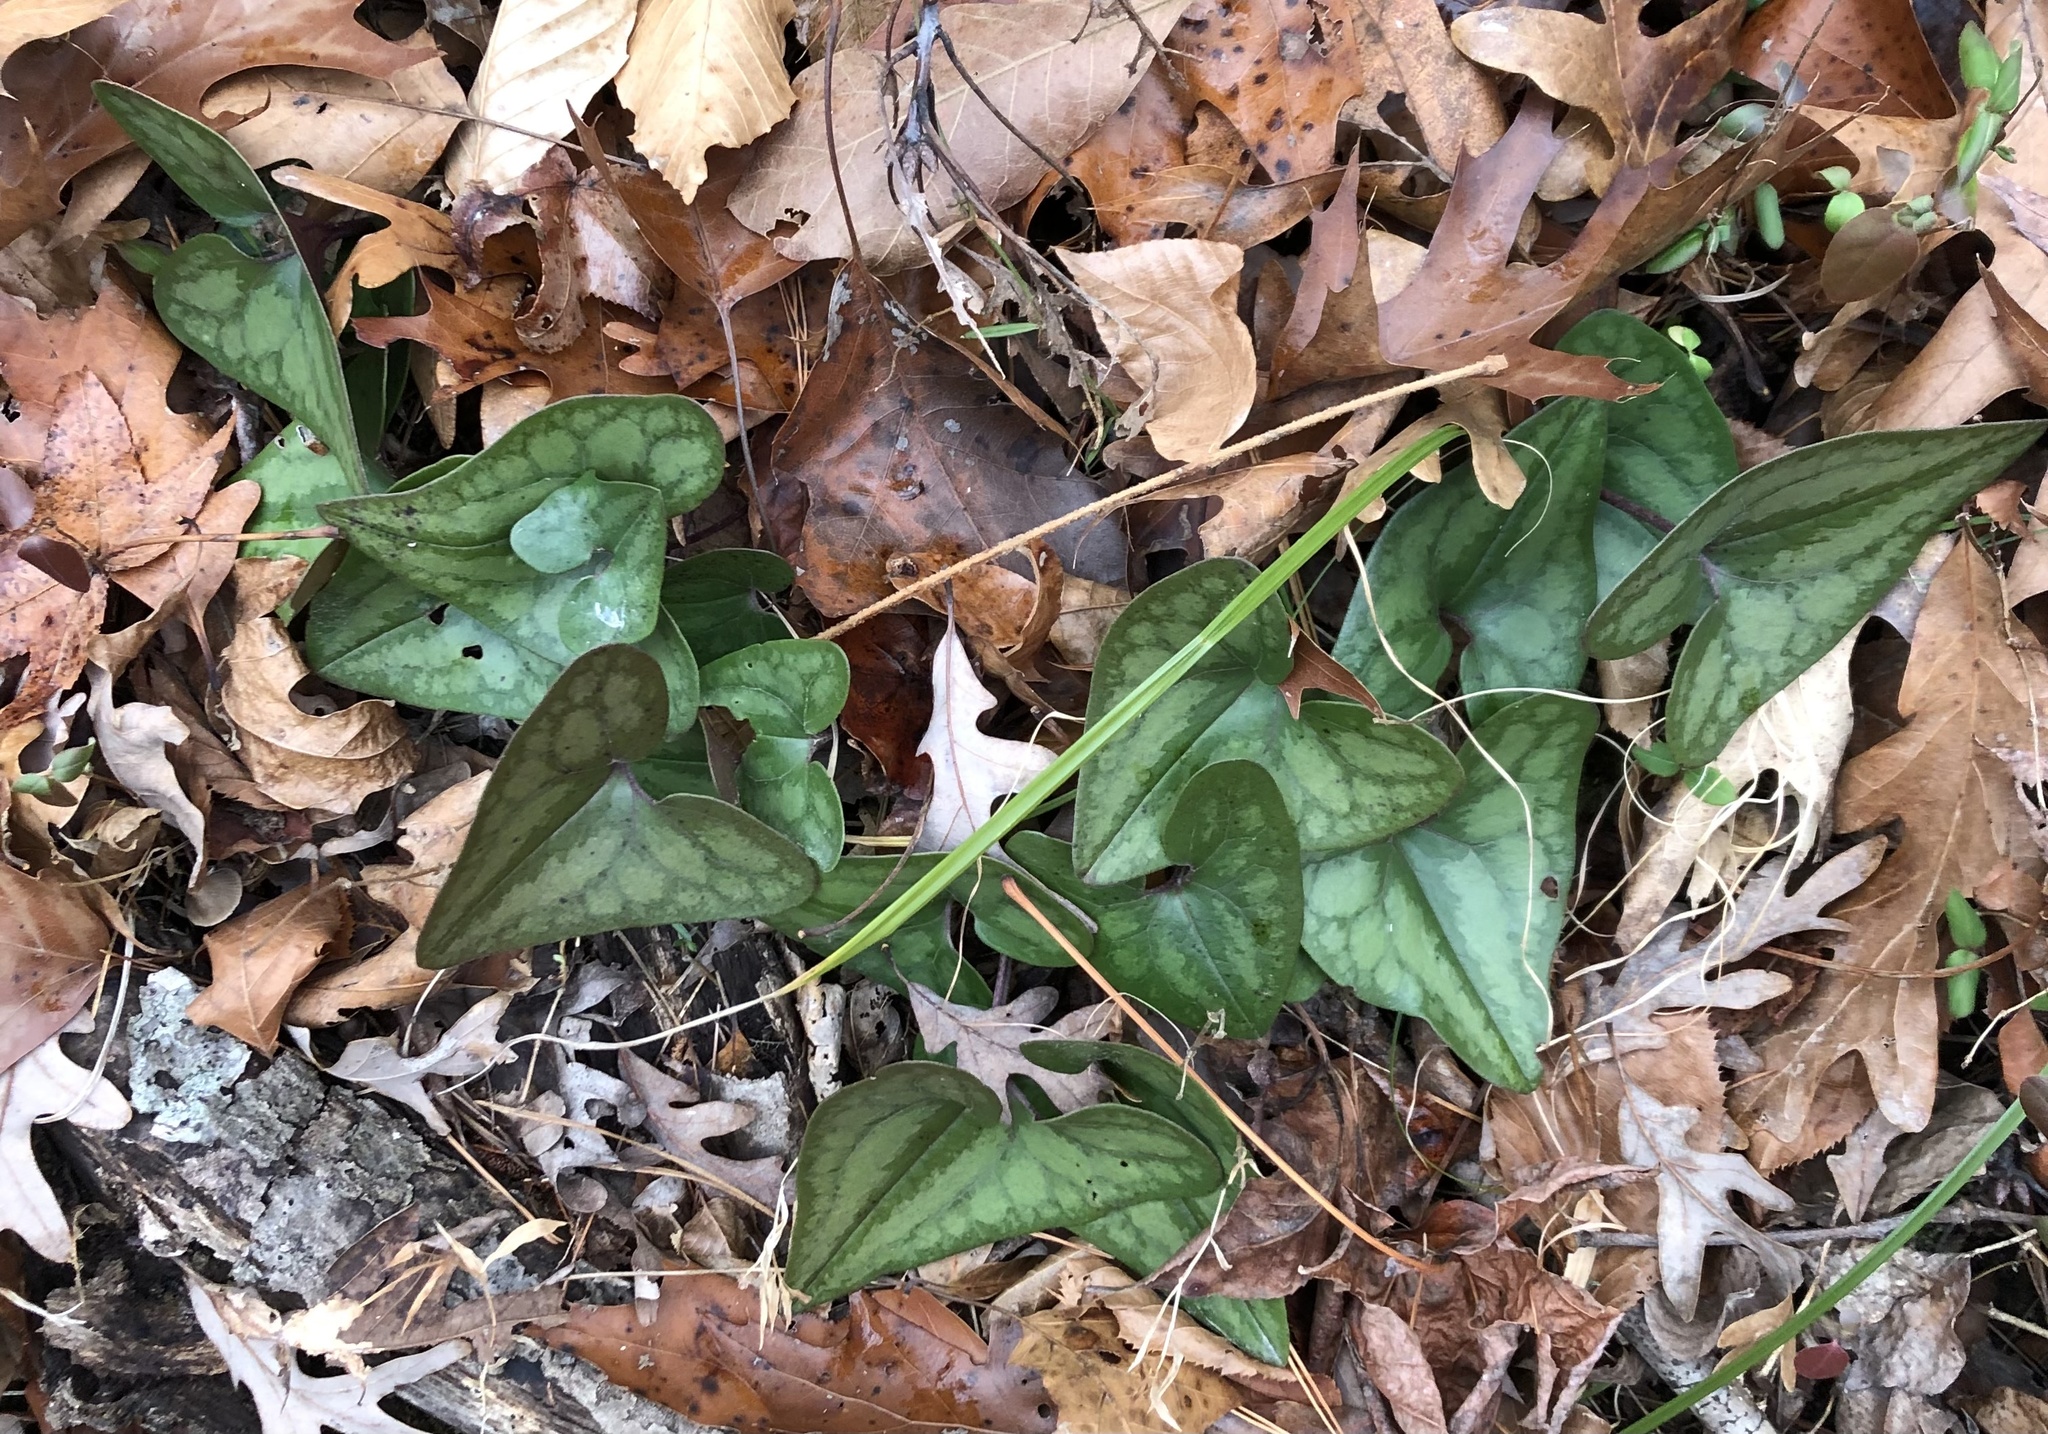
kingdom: Plantae
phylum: Tracheophyta
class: Magnoliopsida
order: Piperales
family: Aristolochiaceae
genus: Hexastylis
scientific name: Hexastylis arifolia
